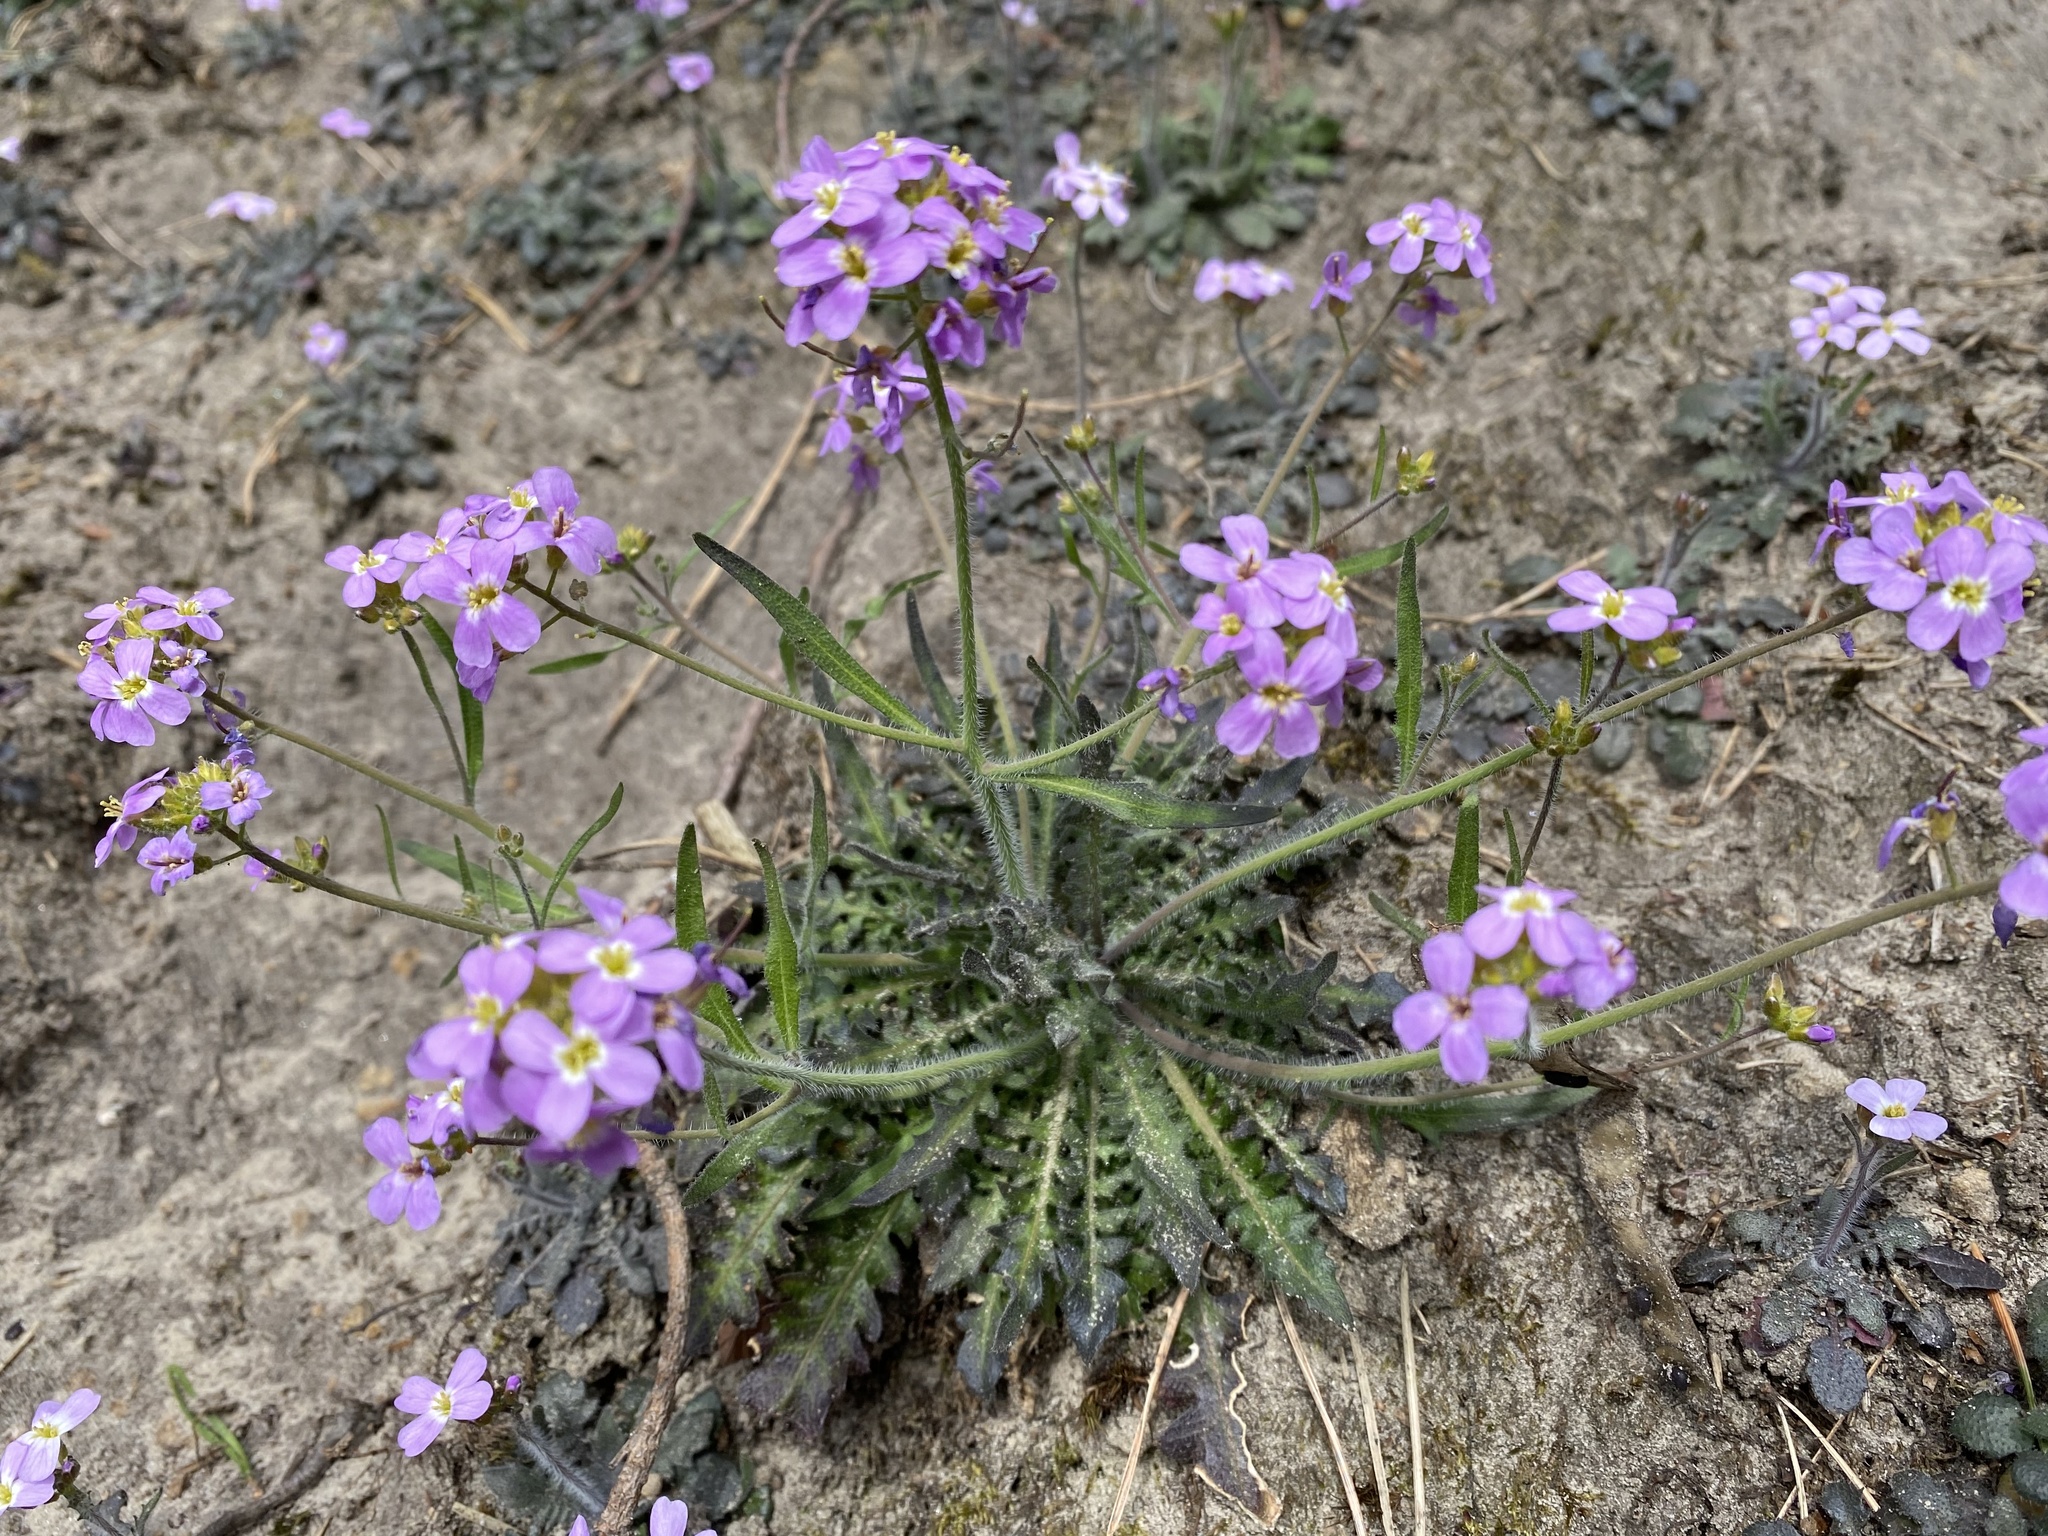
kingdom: Plantae
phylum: Tracheophyta
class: Magnoliopsida
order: Brassicales
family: Brassicaceae
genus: Arabidopsis
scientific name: Arabidopsis arenosa
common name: Sand rock-cress
